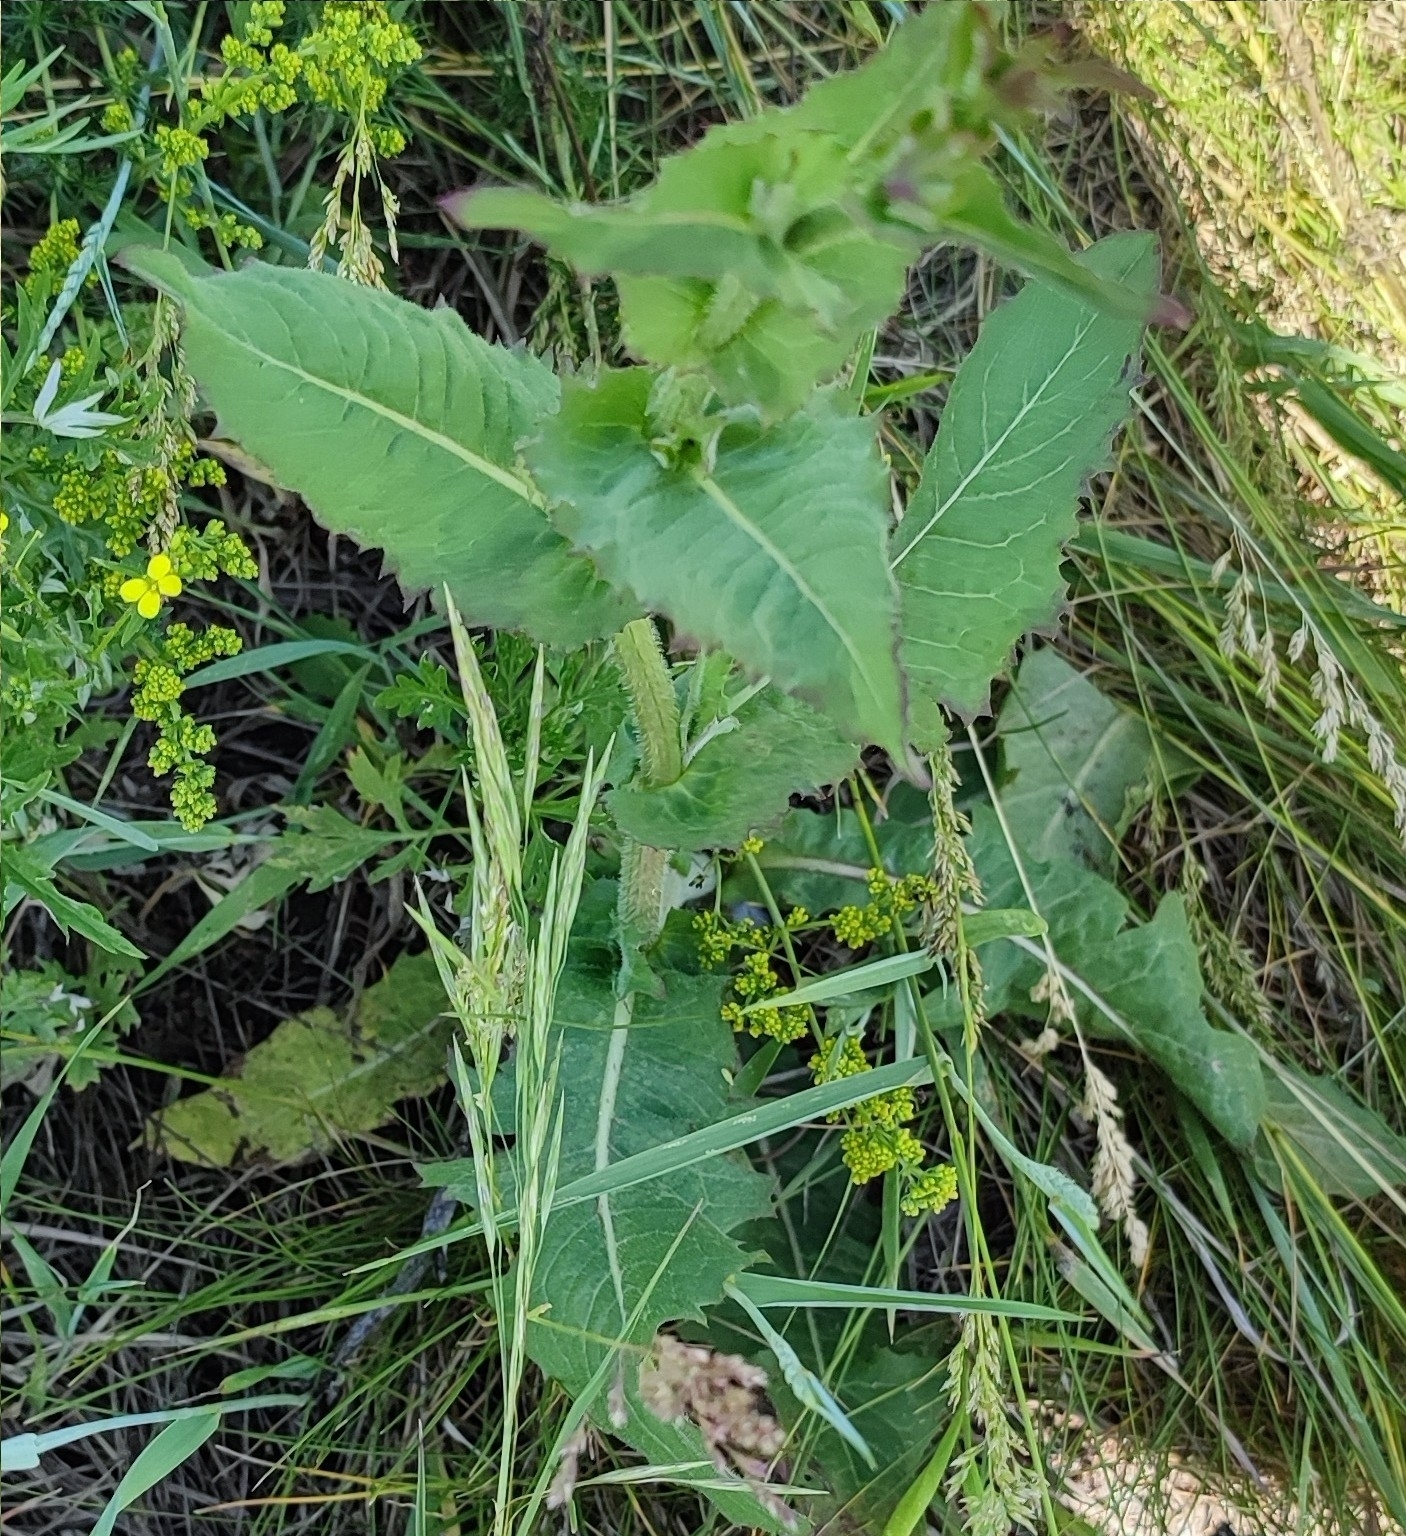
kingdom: Plantae
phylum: Tracheophyta
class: Magnoliopsida
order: Asterales
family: Asteraceae
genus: Sonchus
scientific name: Sonchus oleraceus
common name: Common sowthistle
